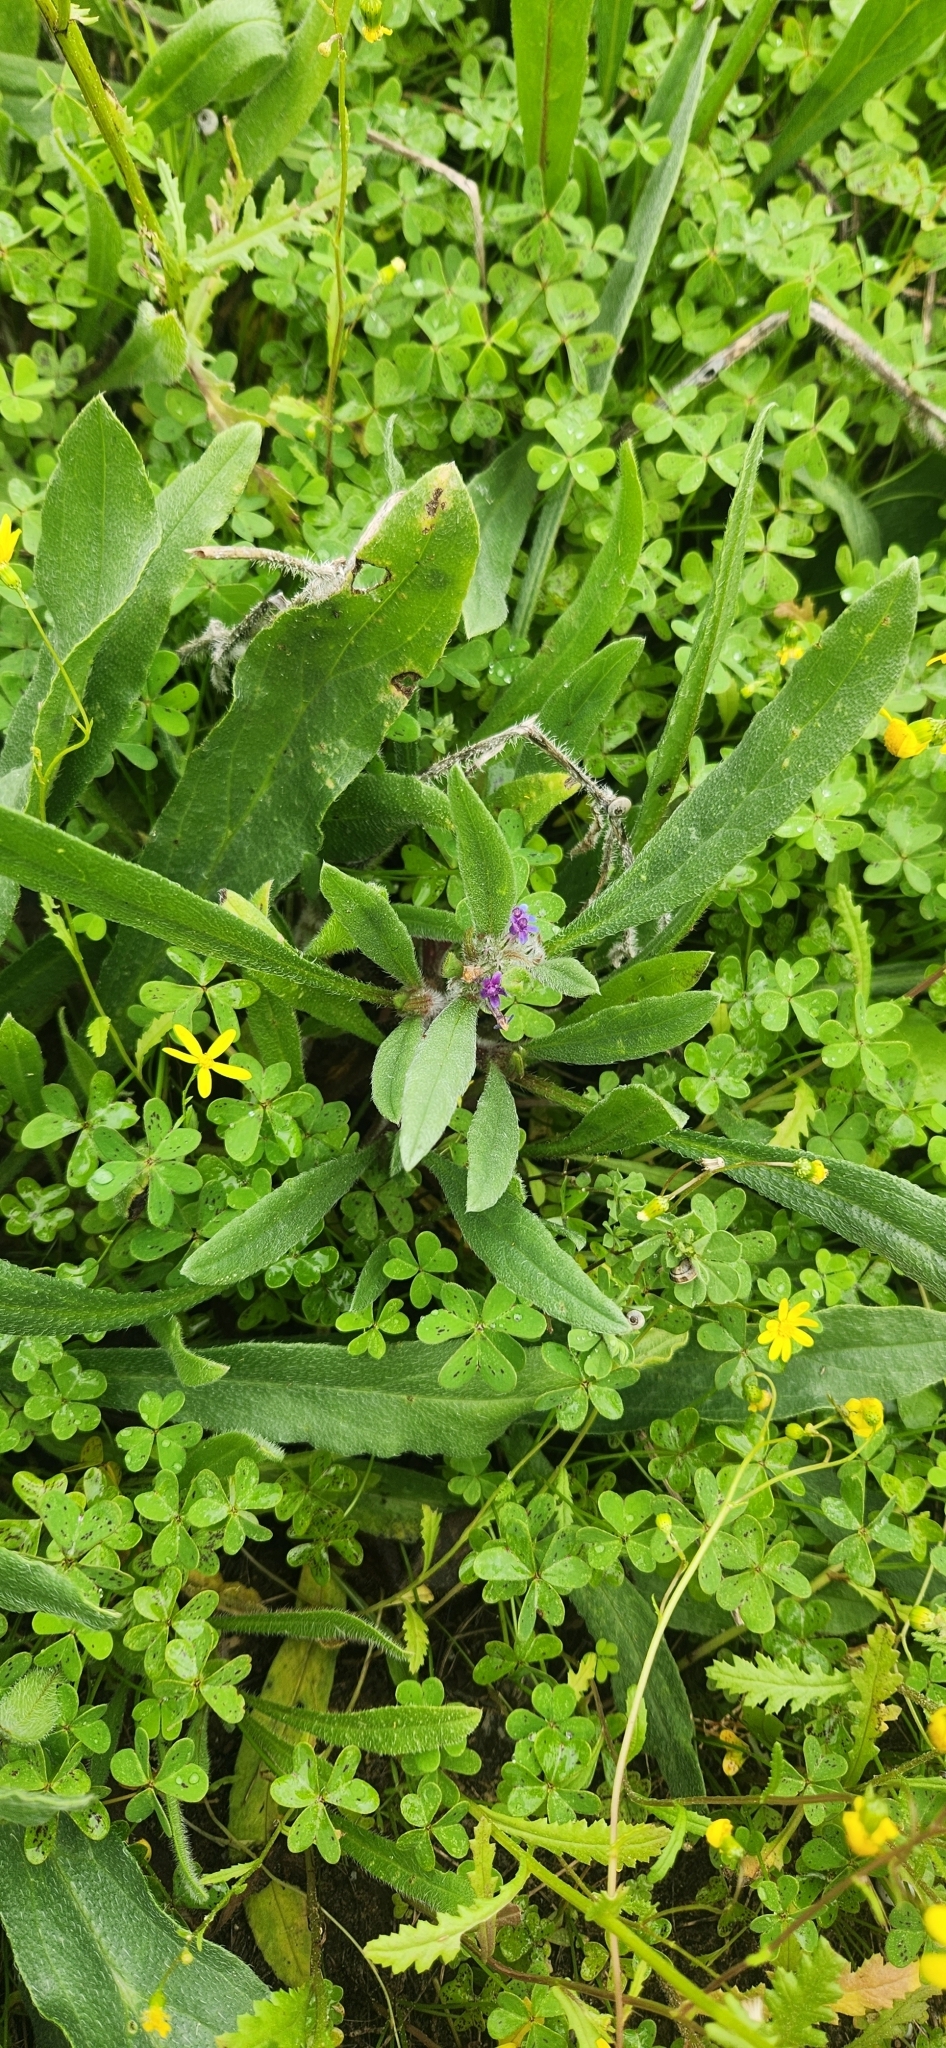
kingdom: Plantae
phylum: Tracheophyta
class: Magnoliopsida
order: Boraginales
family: Boraginaceae
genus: Hormuzakia
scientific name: Hormuzakia aggregata
